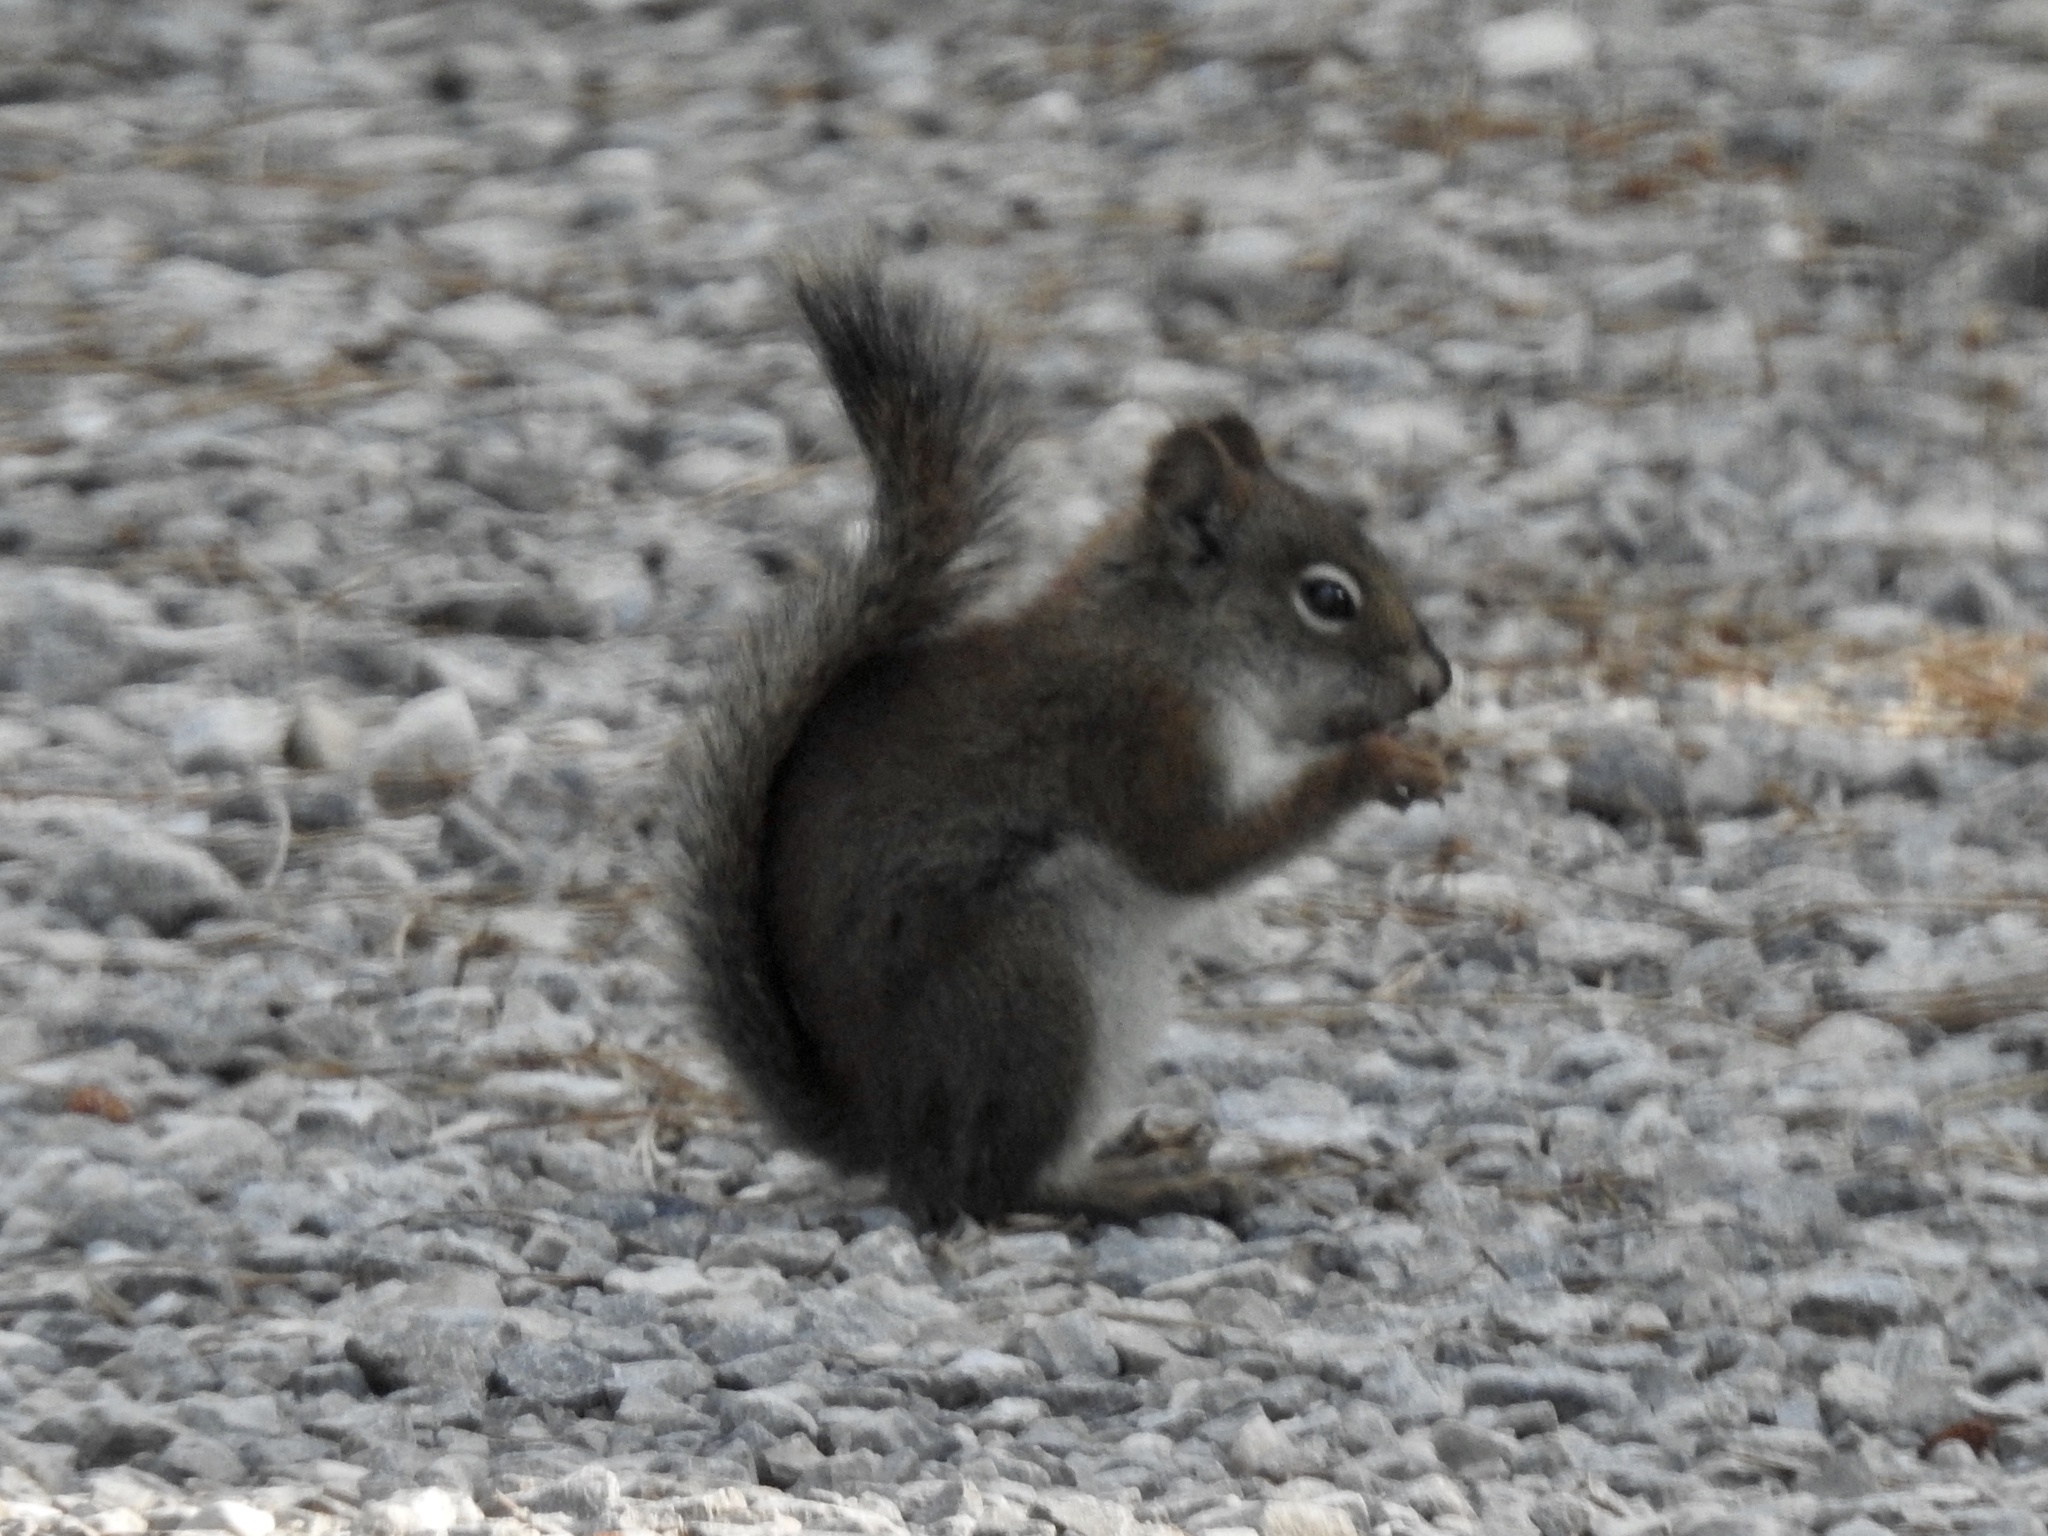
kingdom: Animalia
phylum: Chordata
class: Mammalia
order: Rodentia
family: Sciuridae
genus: Tamiasciurus
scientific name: Tamiasciurus hudsonicus
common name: Red squirrel
